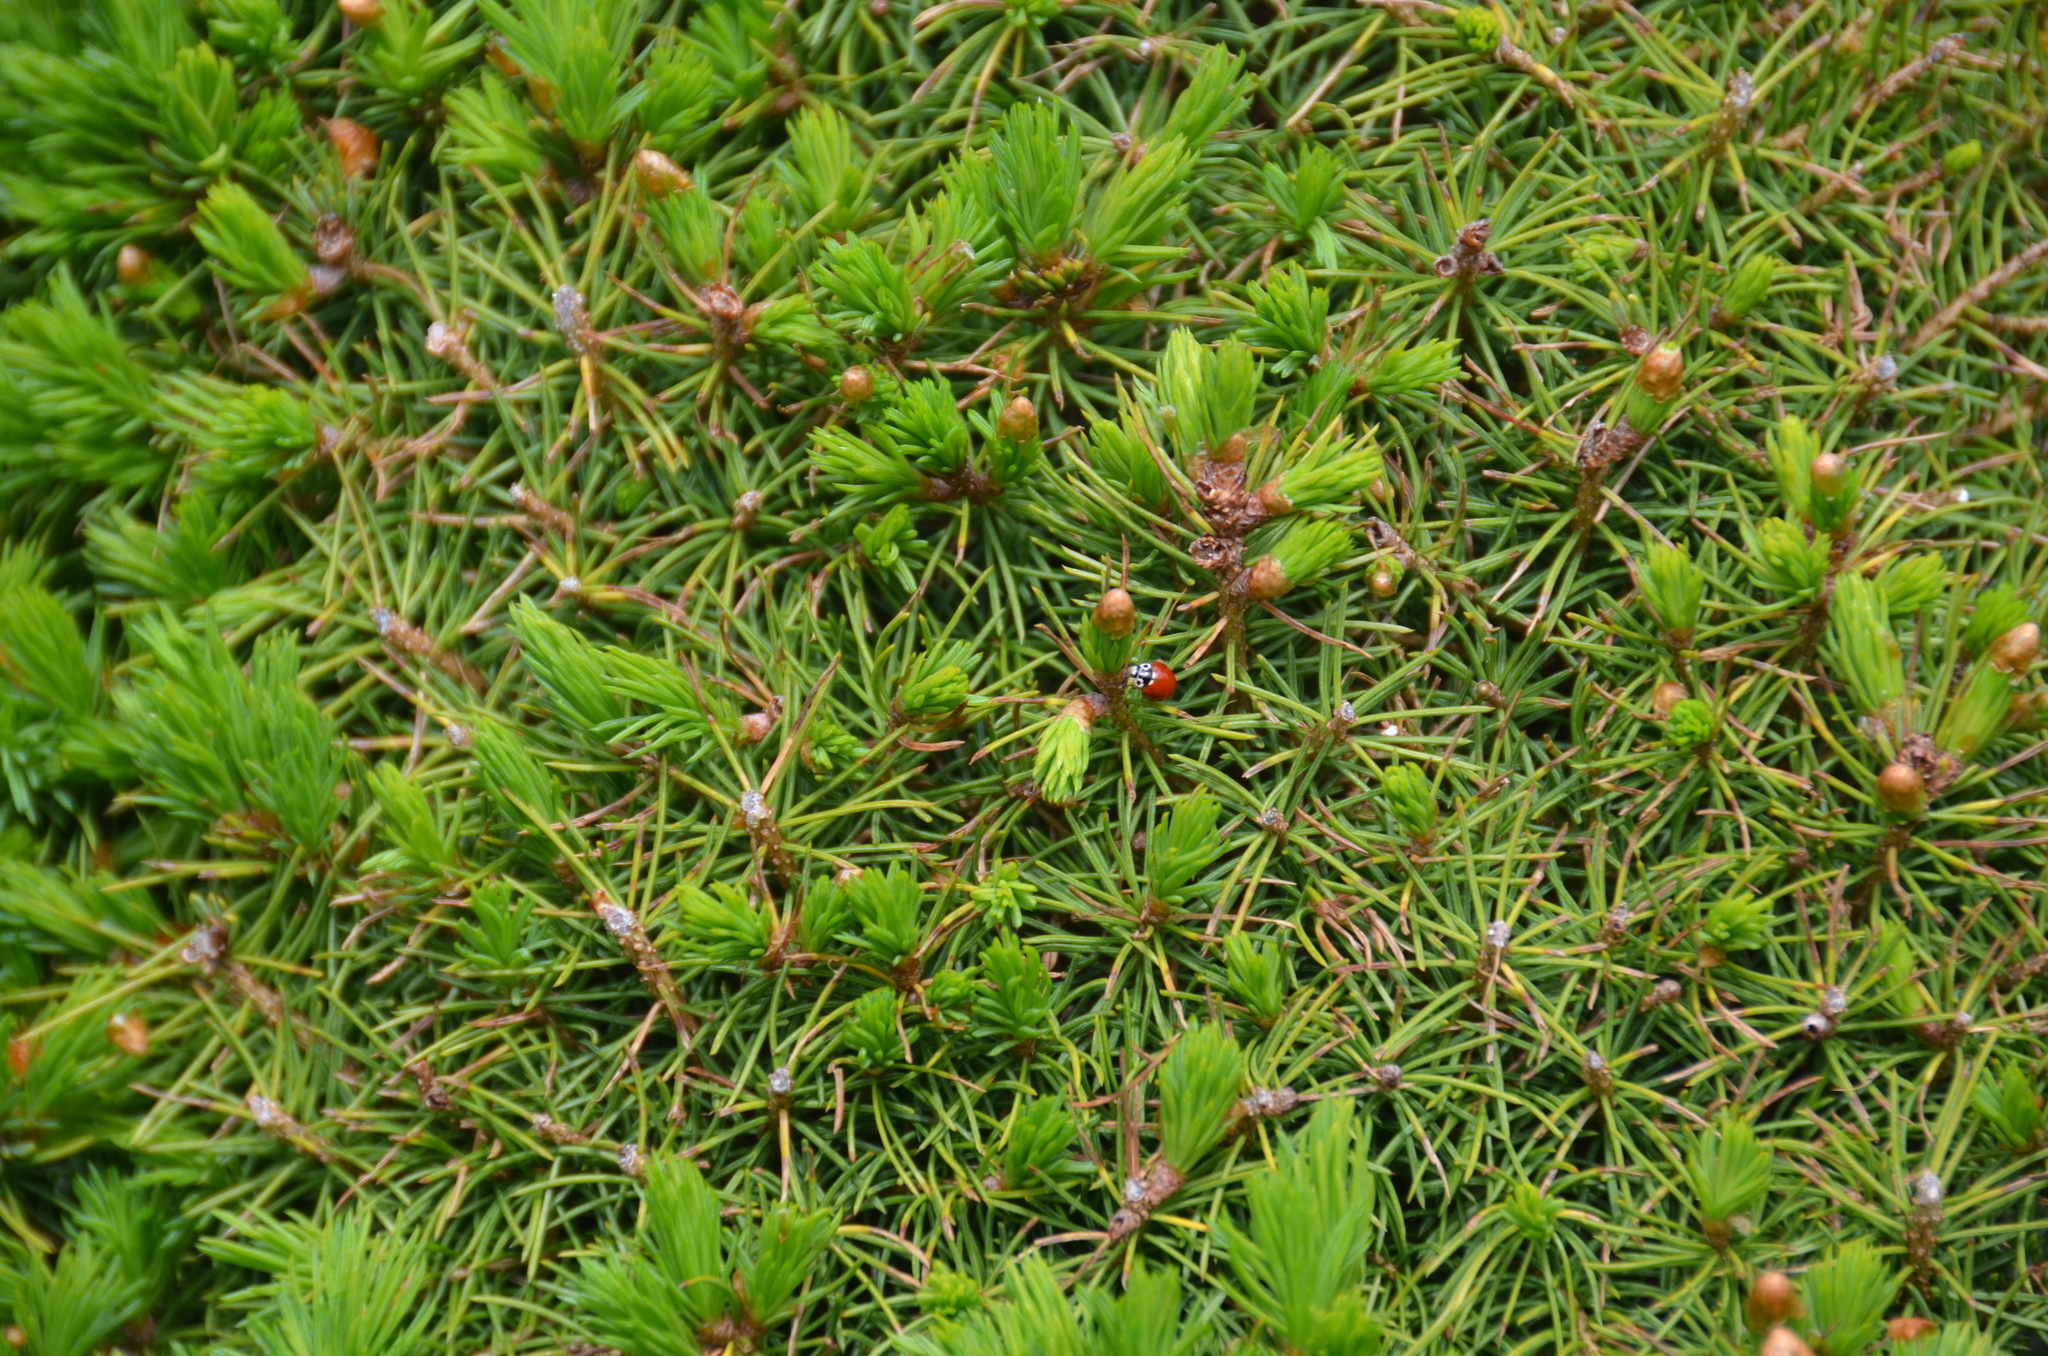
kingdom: Animalia
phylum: Arthropoda
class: Insecta
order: Coleoptera
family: Coccinellidae
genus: Cycloneda
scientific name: Cycloneda polita
